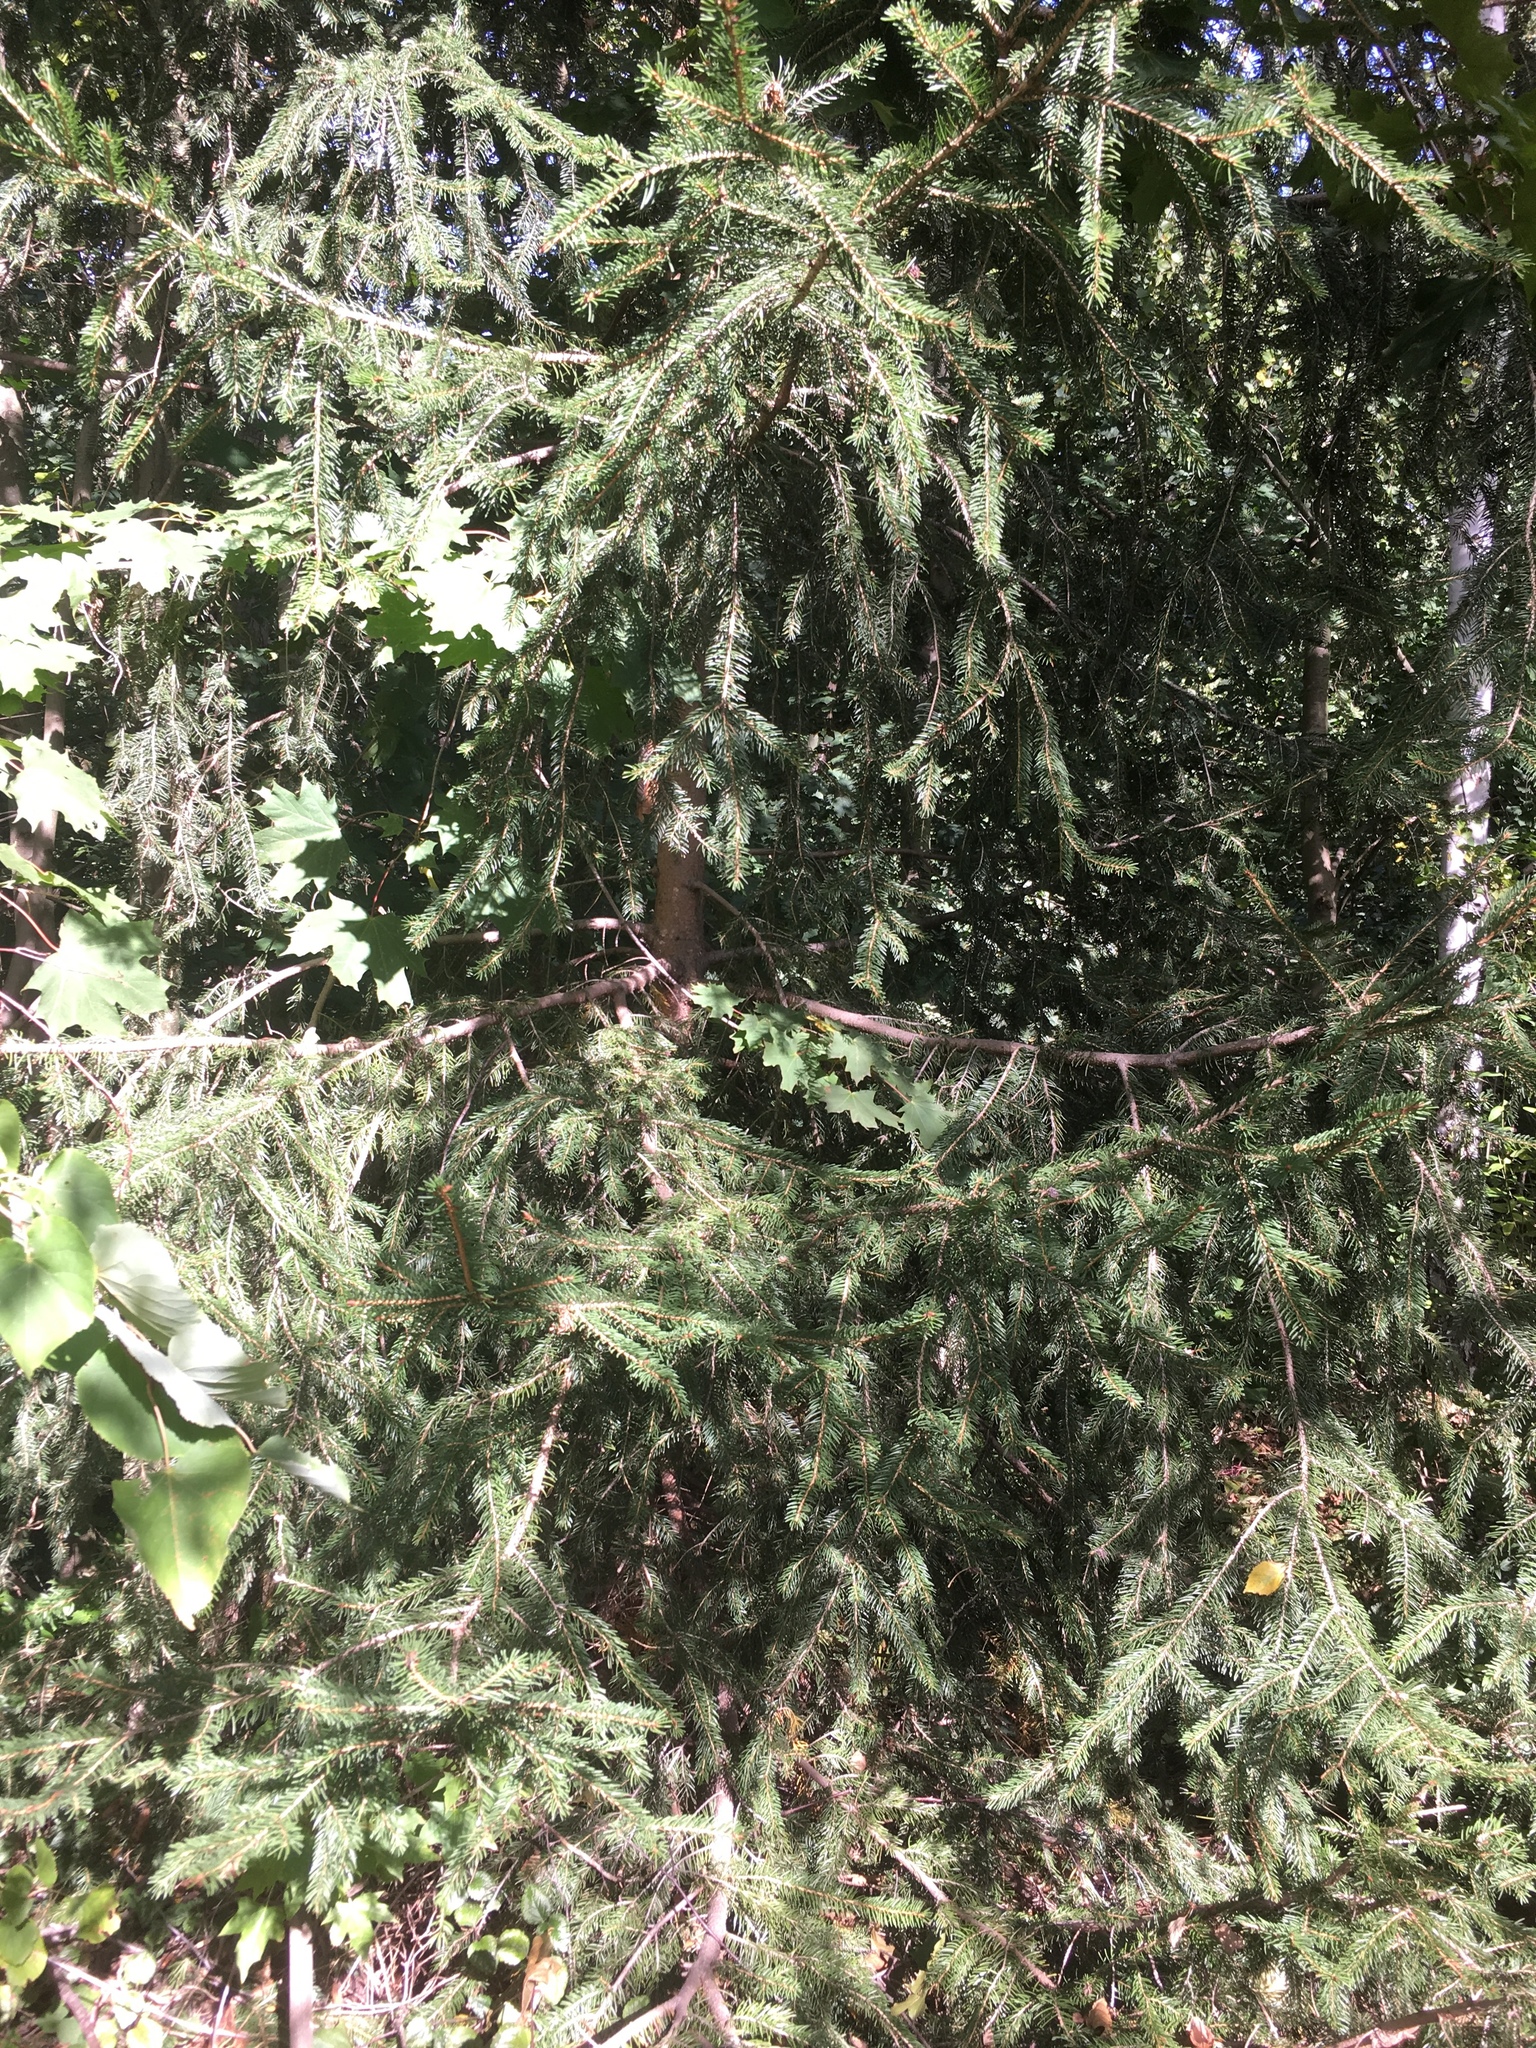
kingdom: Plantae
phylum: Tracheophyta
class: Pinopsida
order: Pinales
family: Pinaceae
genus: Picea
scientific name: Picea abies
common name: Norway spruce
